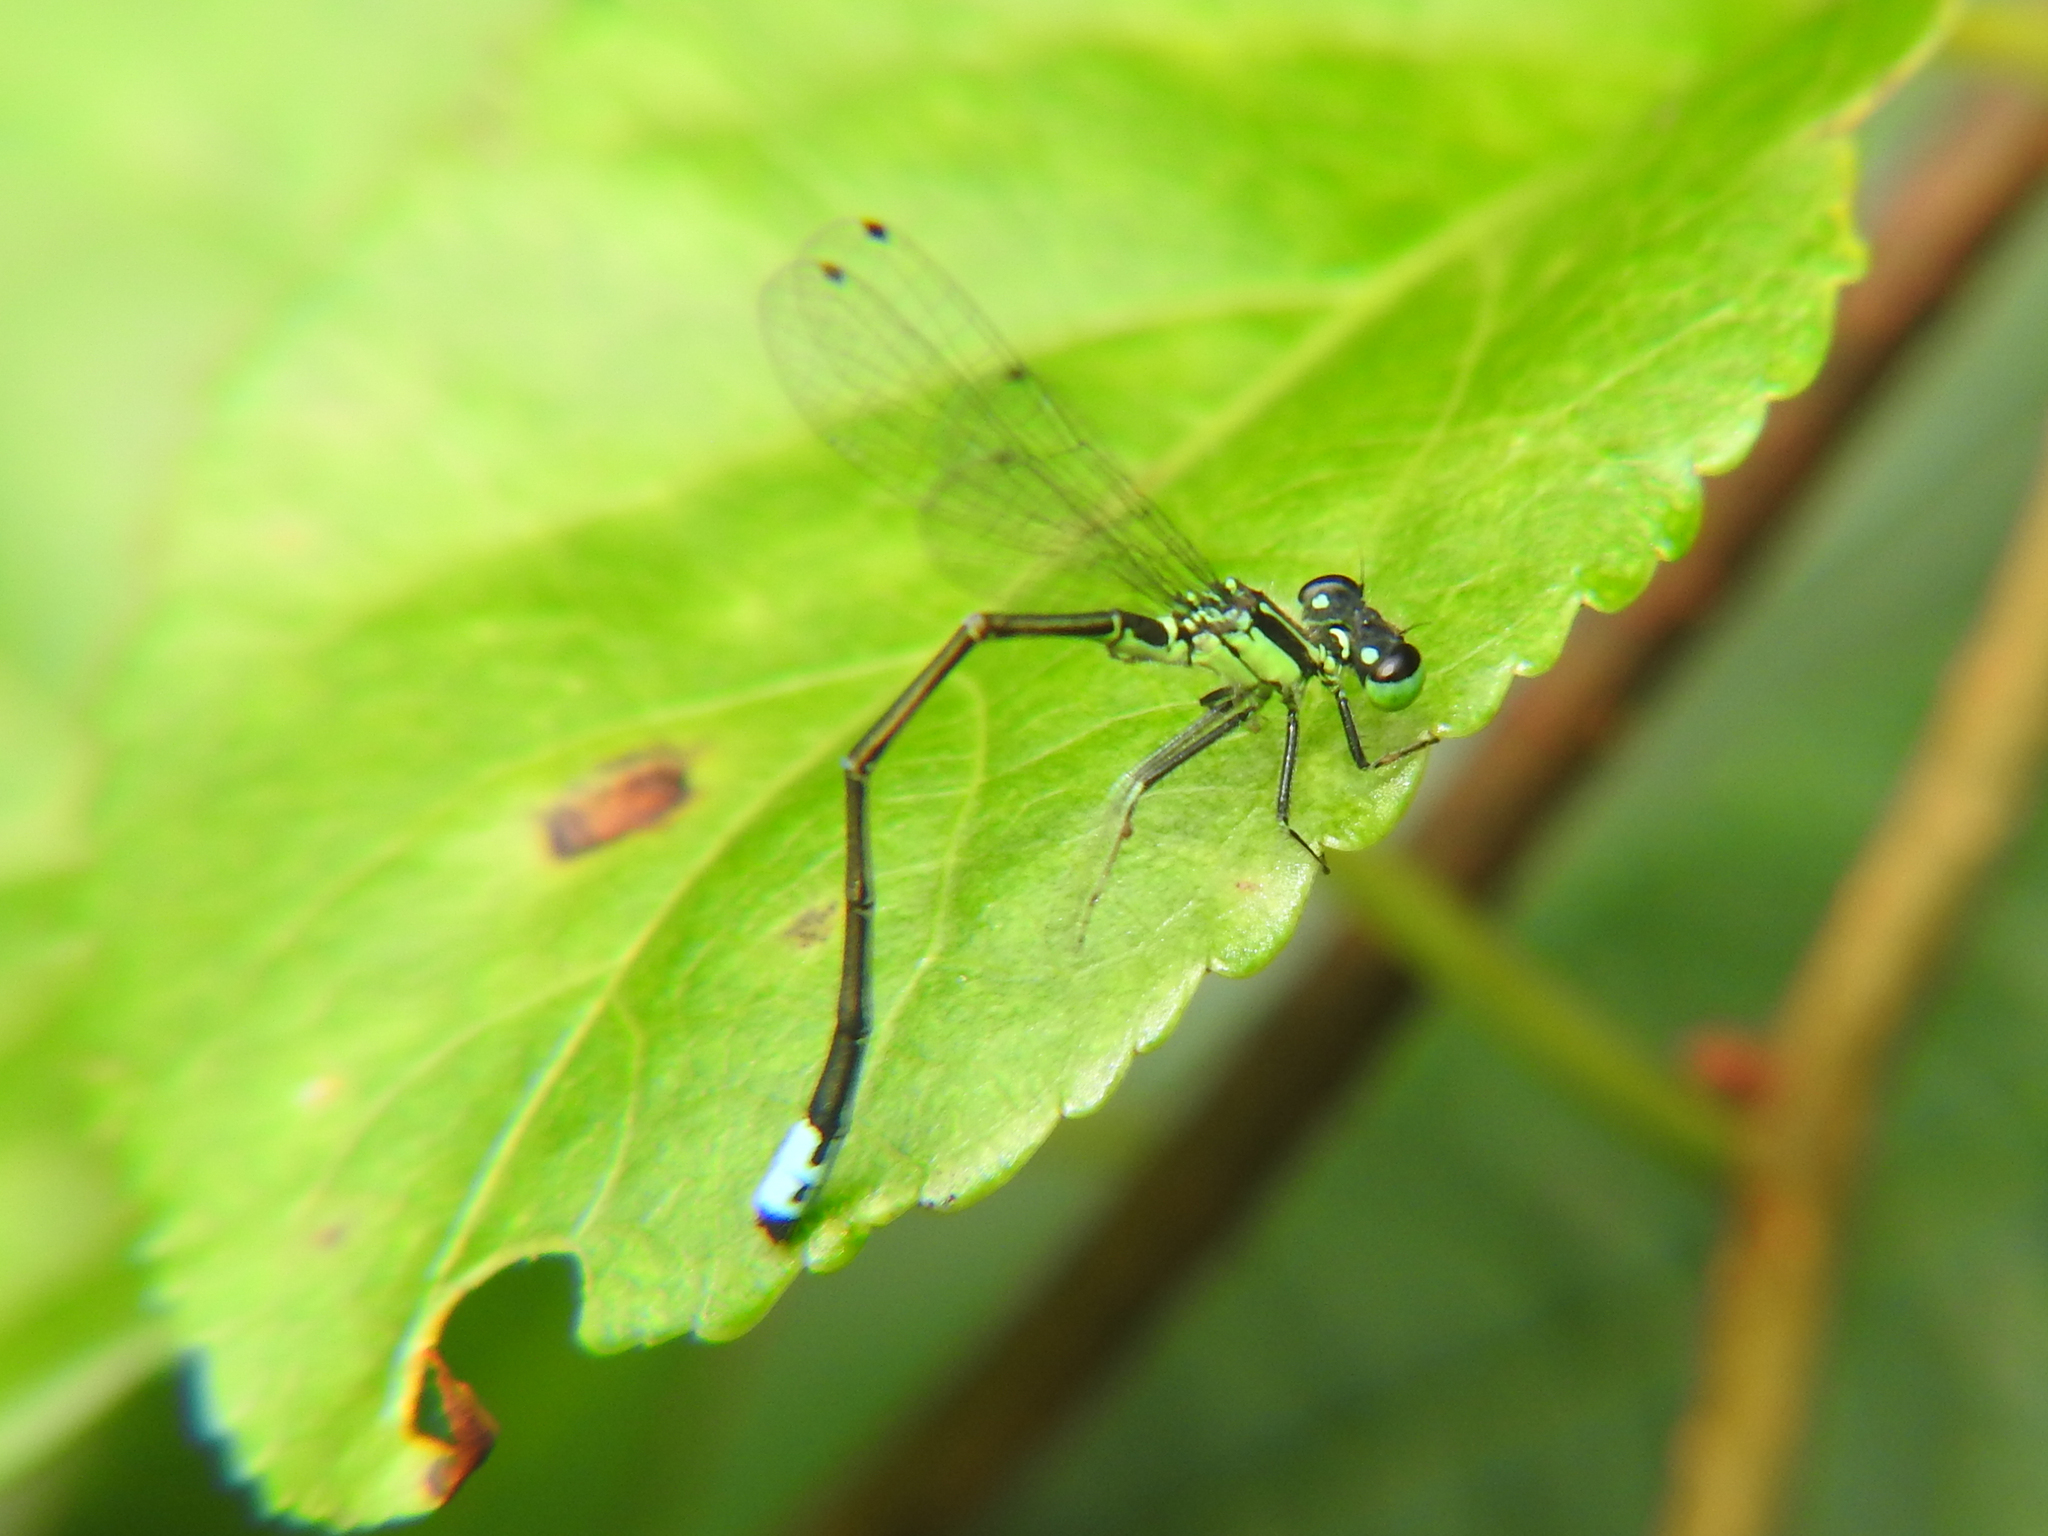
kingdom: Animalia
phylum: Arthropoda
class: Insecta
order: Odonata
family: Coenagrionidae
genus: Ischnura
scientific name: Ischnura verticalis
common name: Eastern forktail
